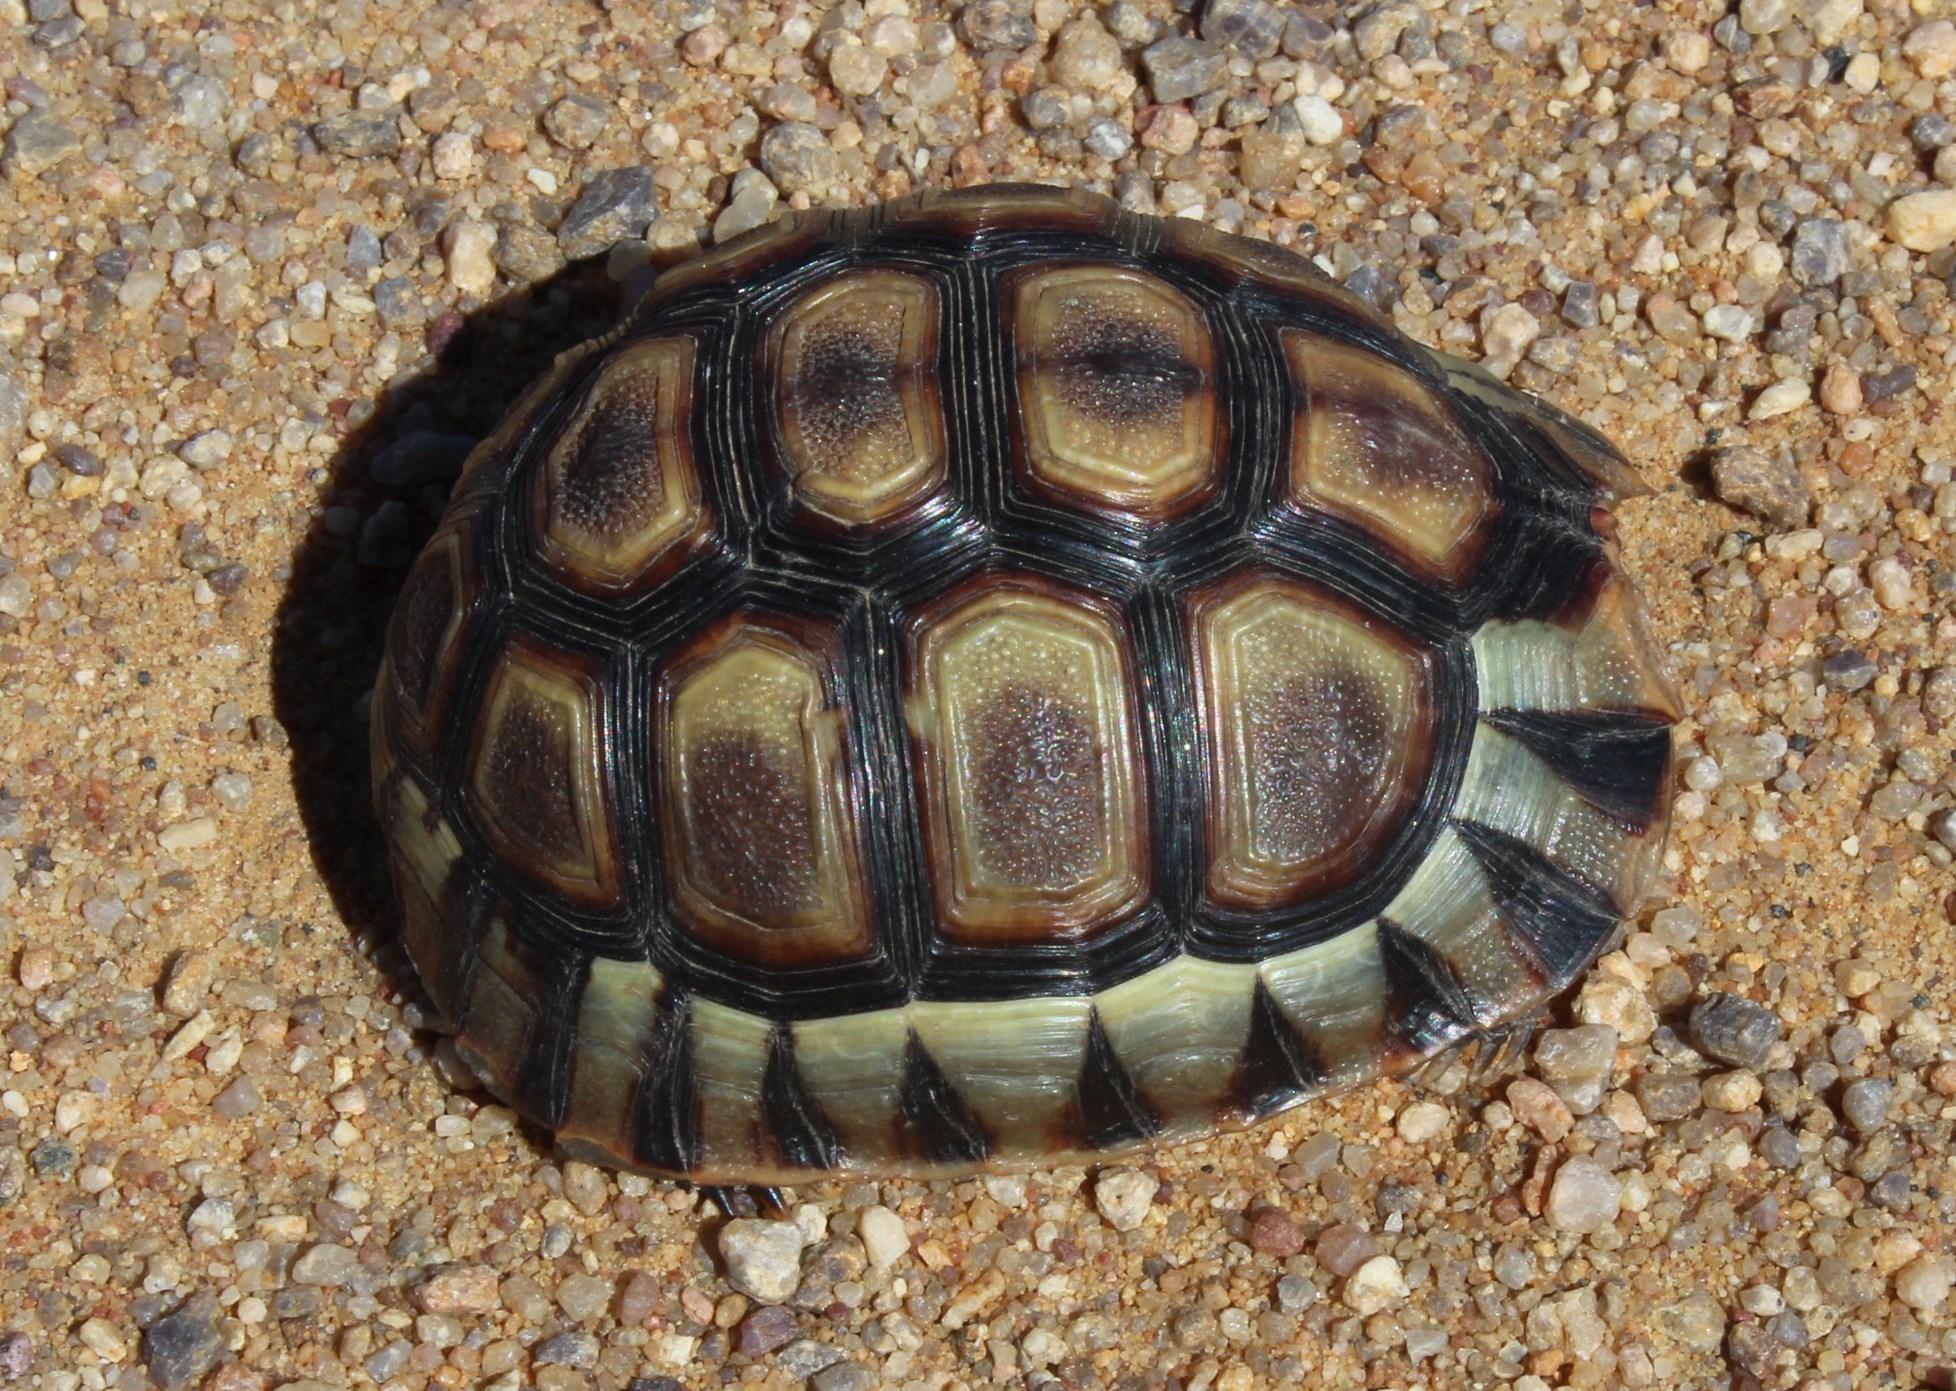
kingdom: Animalia
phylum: Chordata
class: Testudines
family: Testudinidae
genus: Chersina
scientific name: Chersina angulata
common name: South african bowsprit tortoise
